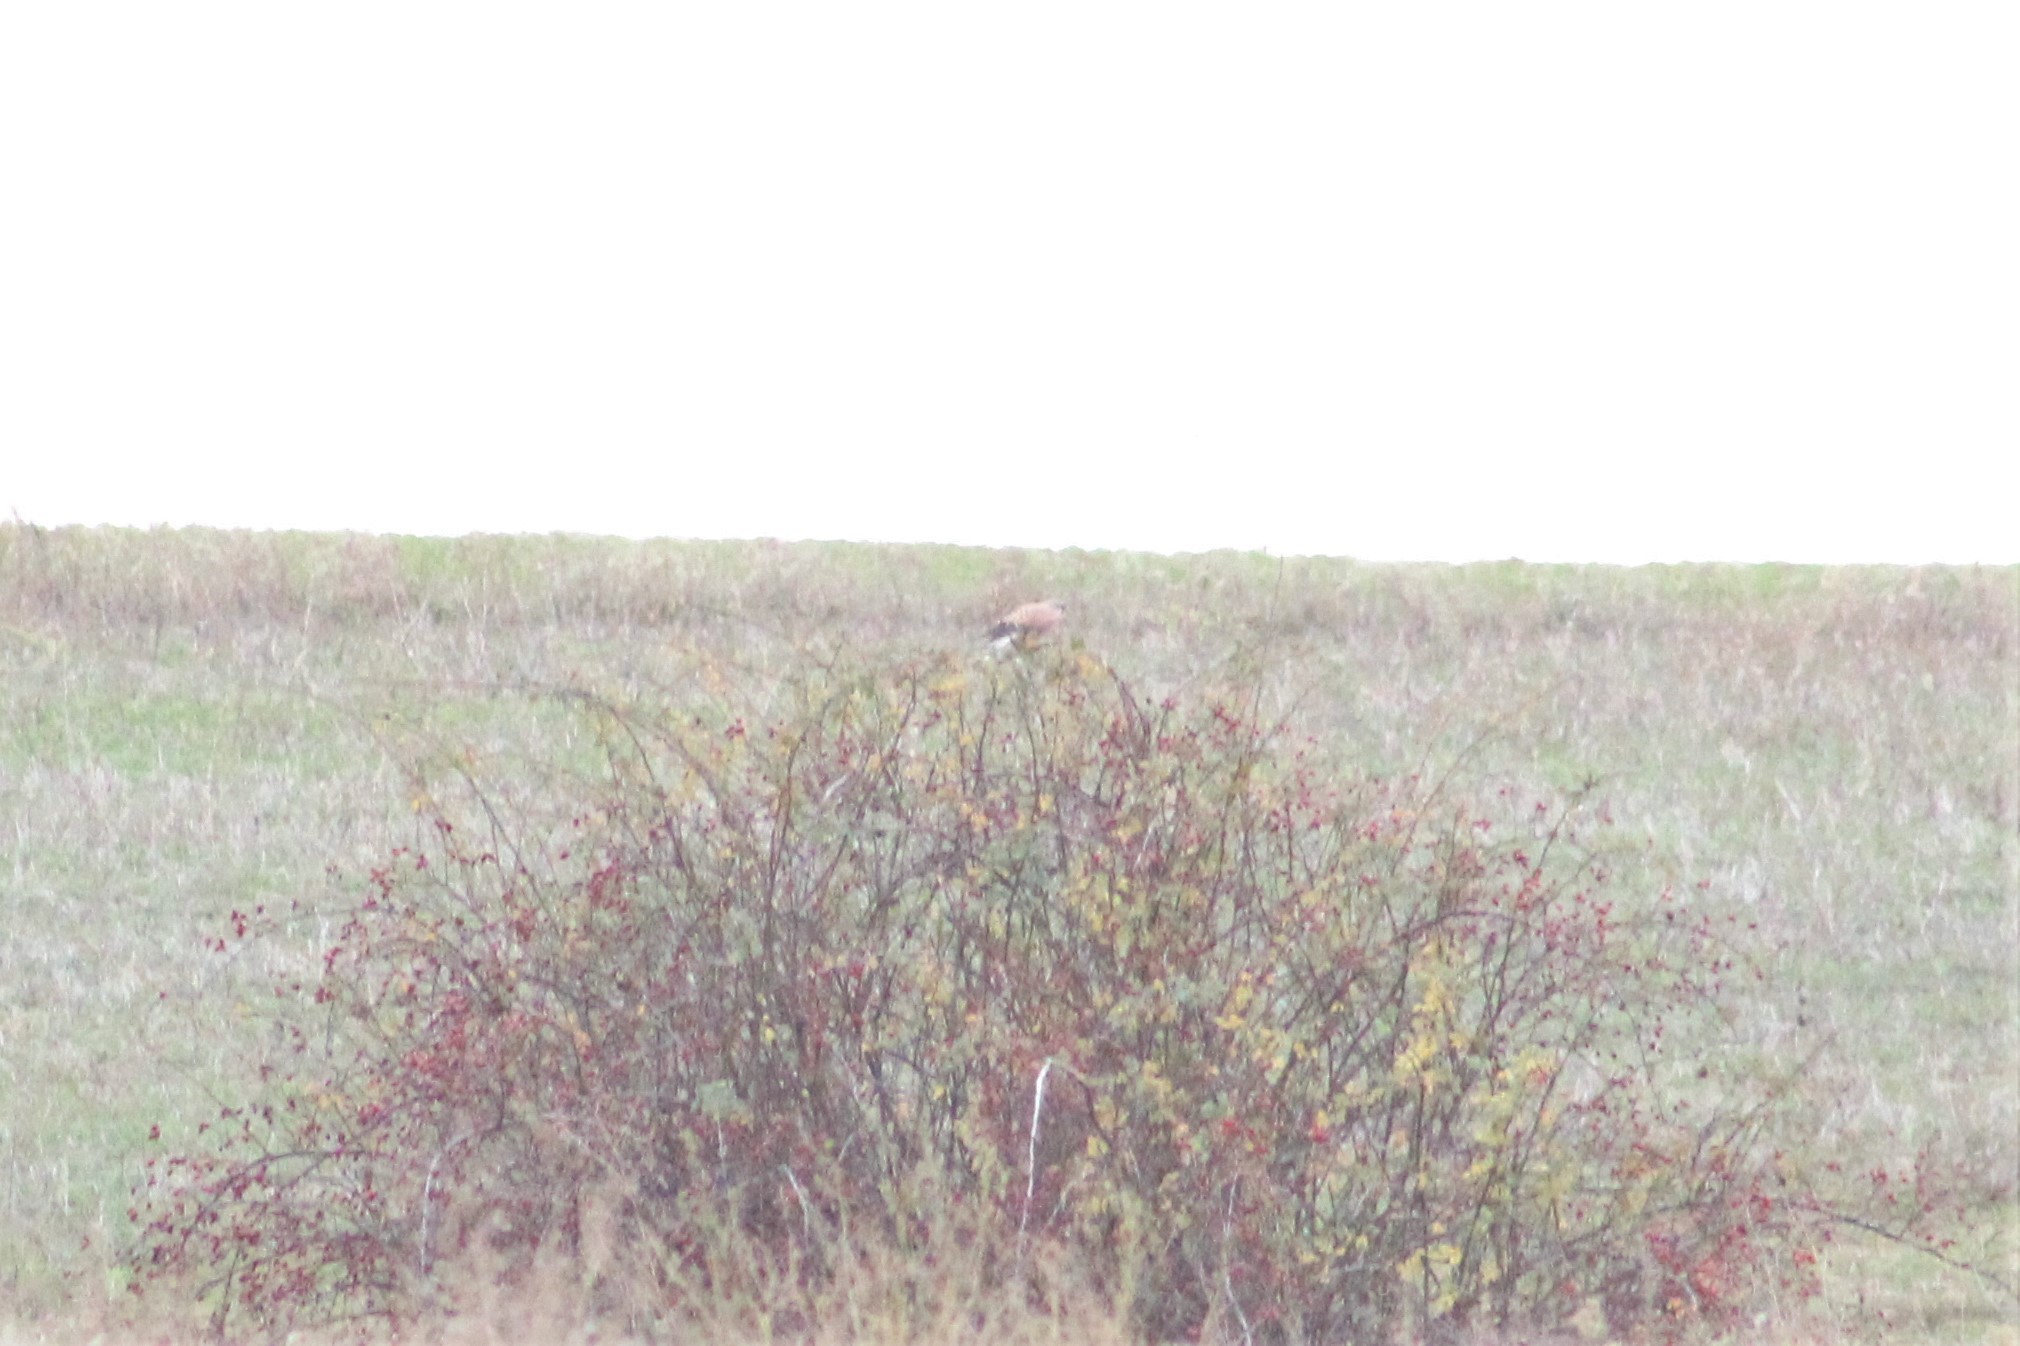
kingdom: Animalia
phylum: Chordata
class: Aves
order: Falconiformes
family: Falconidae
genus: Falco
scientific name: Falco tinnunculus
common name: Common kestrel
